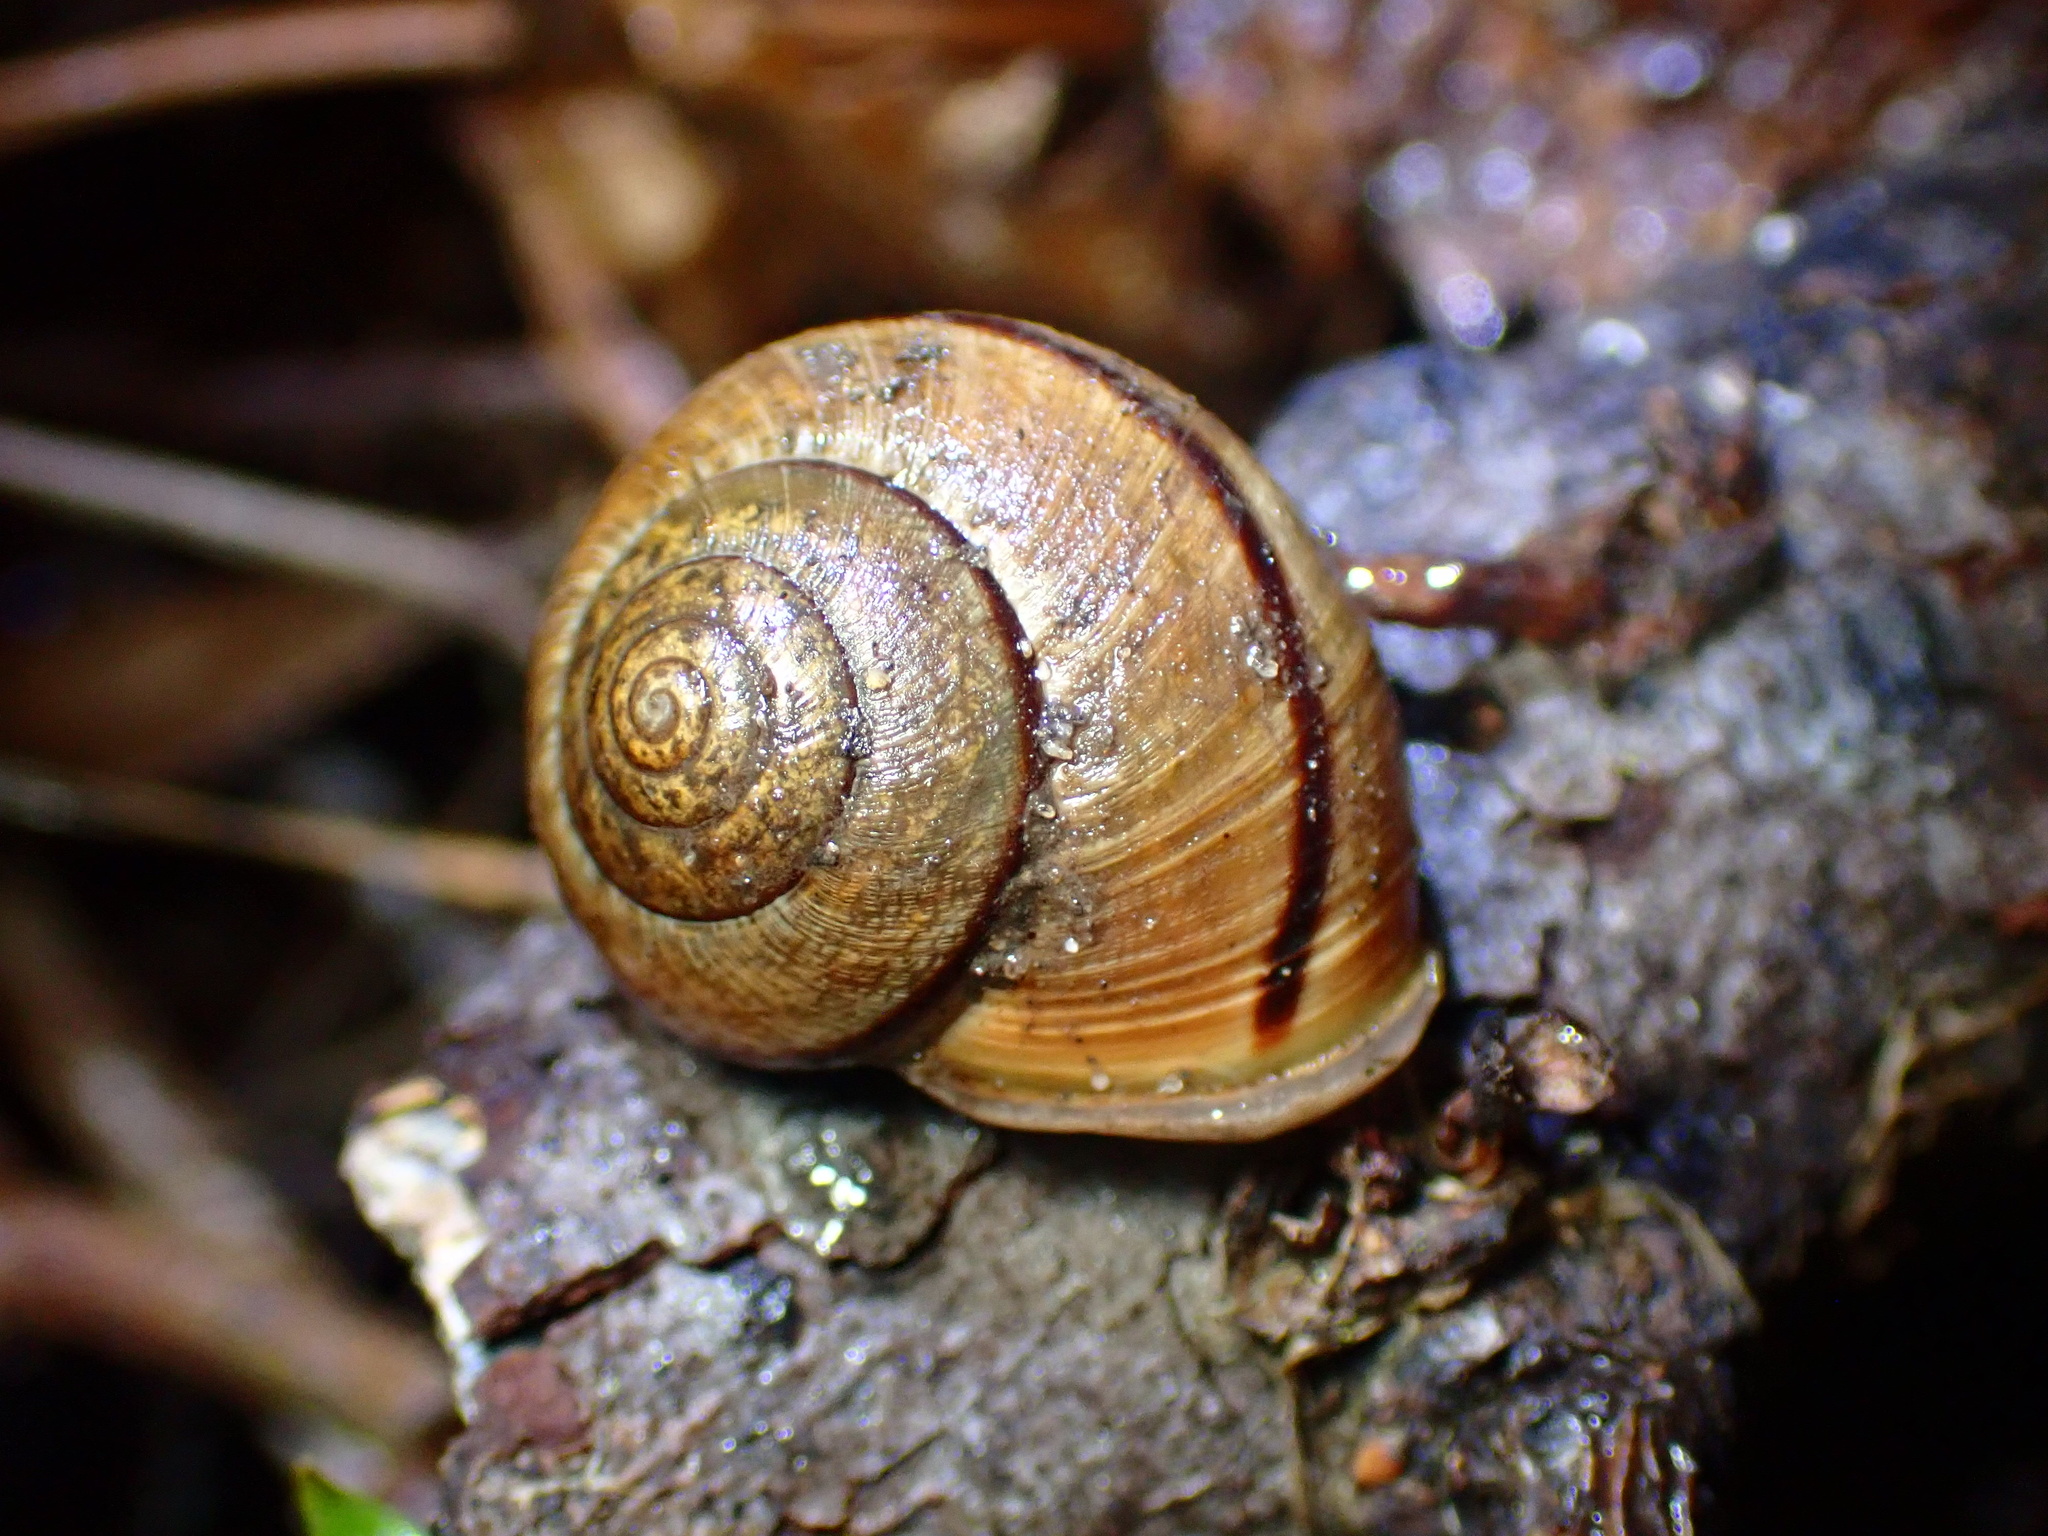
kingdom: Animalia
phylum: Mollusca
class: Gastropoda
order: Stylommatophora
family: Xanthonychidae
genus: Helminthoglypta
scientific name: Helminthoglypta nickliniana
